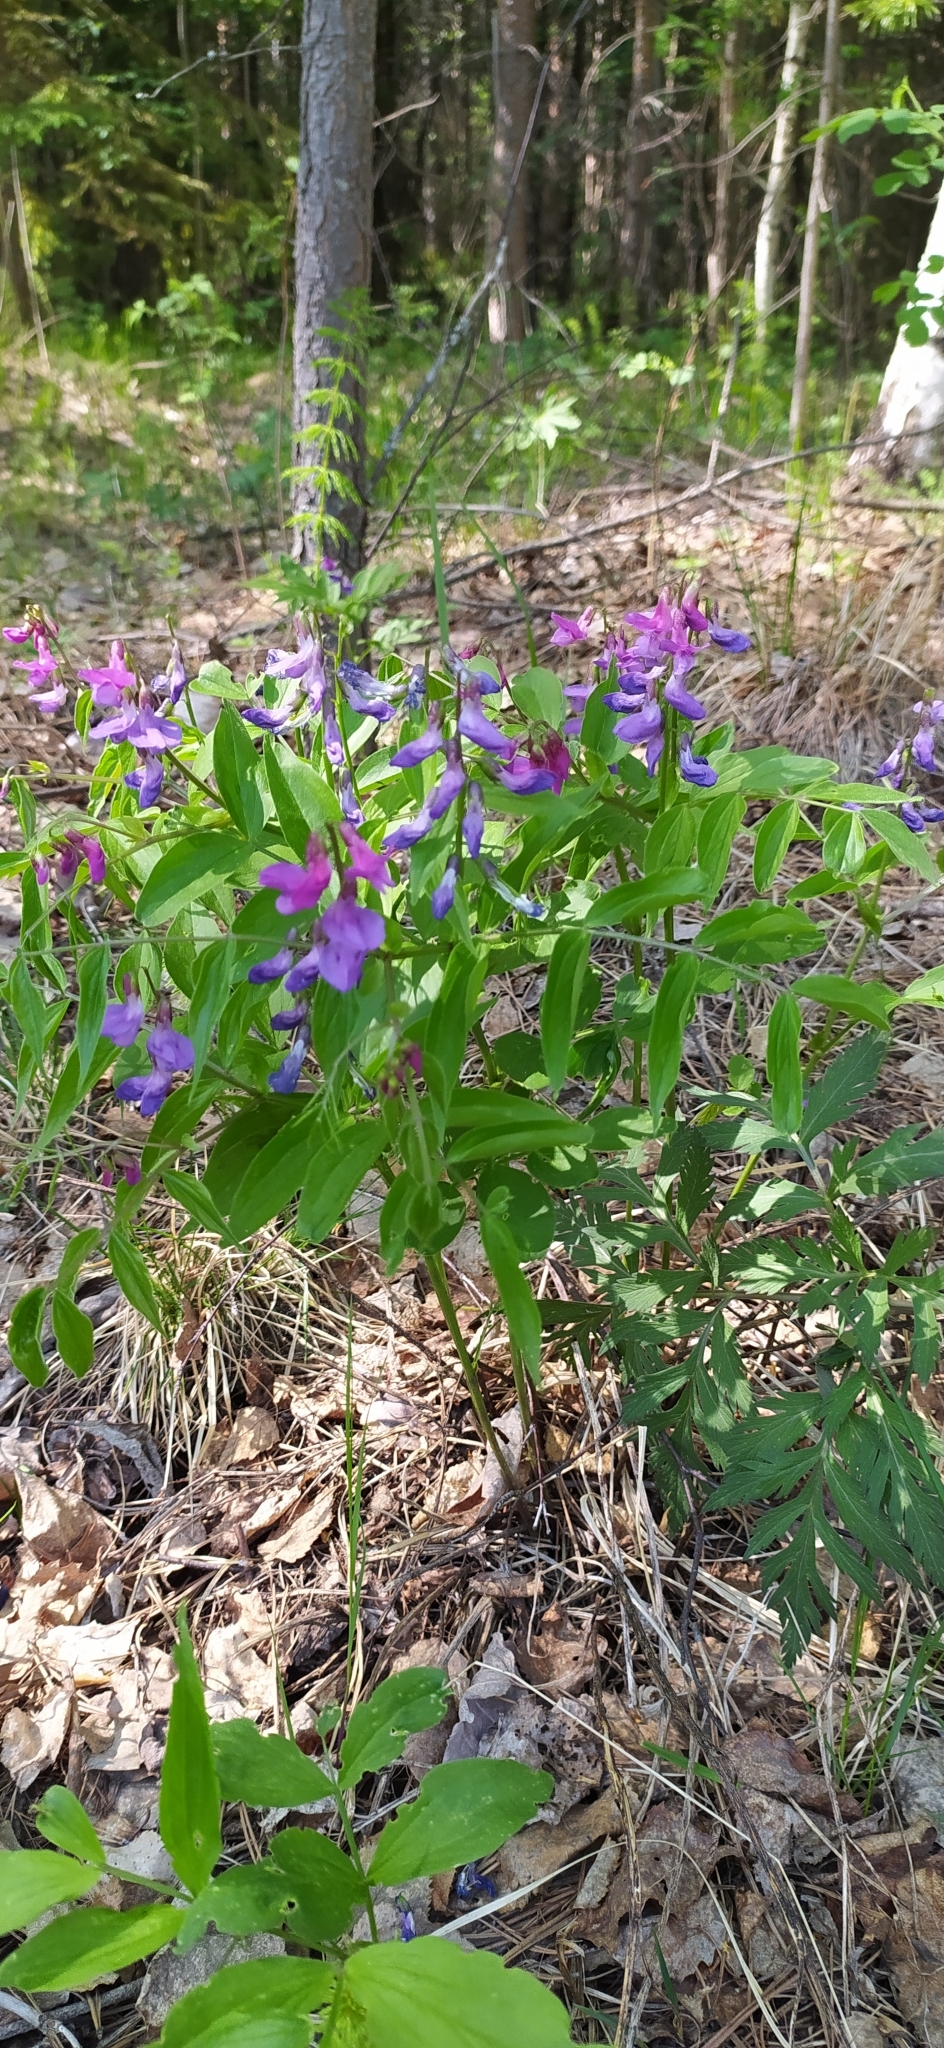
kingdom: Plantae
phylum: Tracheophyta
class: Magnoliopsida
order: Fabales
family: Fabaceae
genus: Lathyrus
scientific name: Lathyrus vernus
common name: Spring pea
